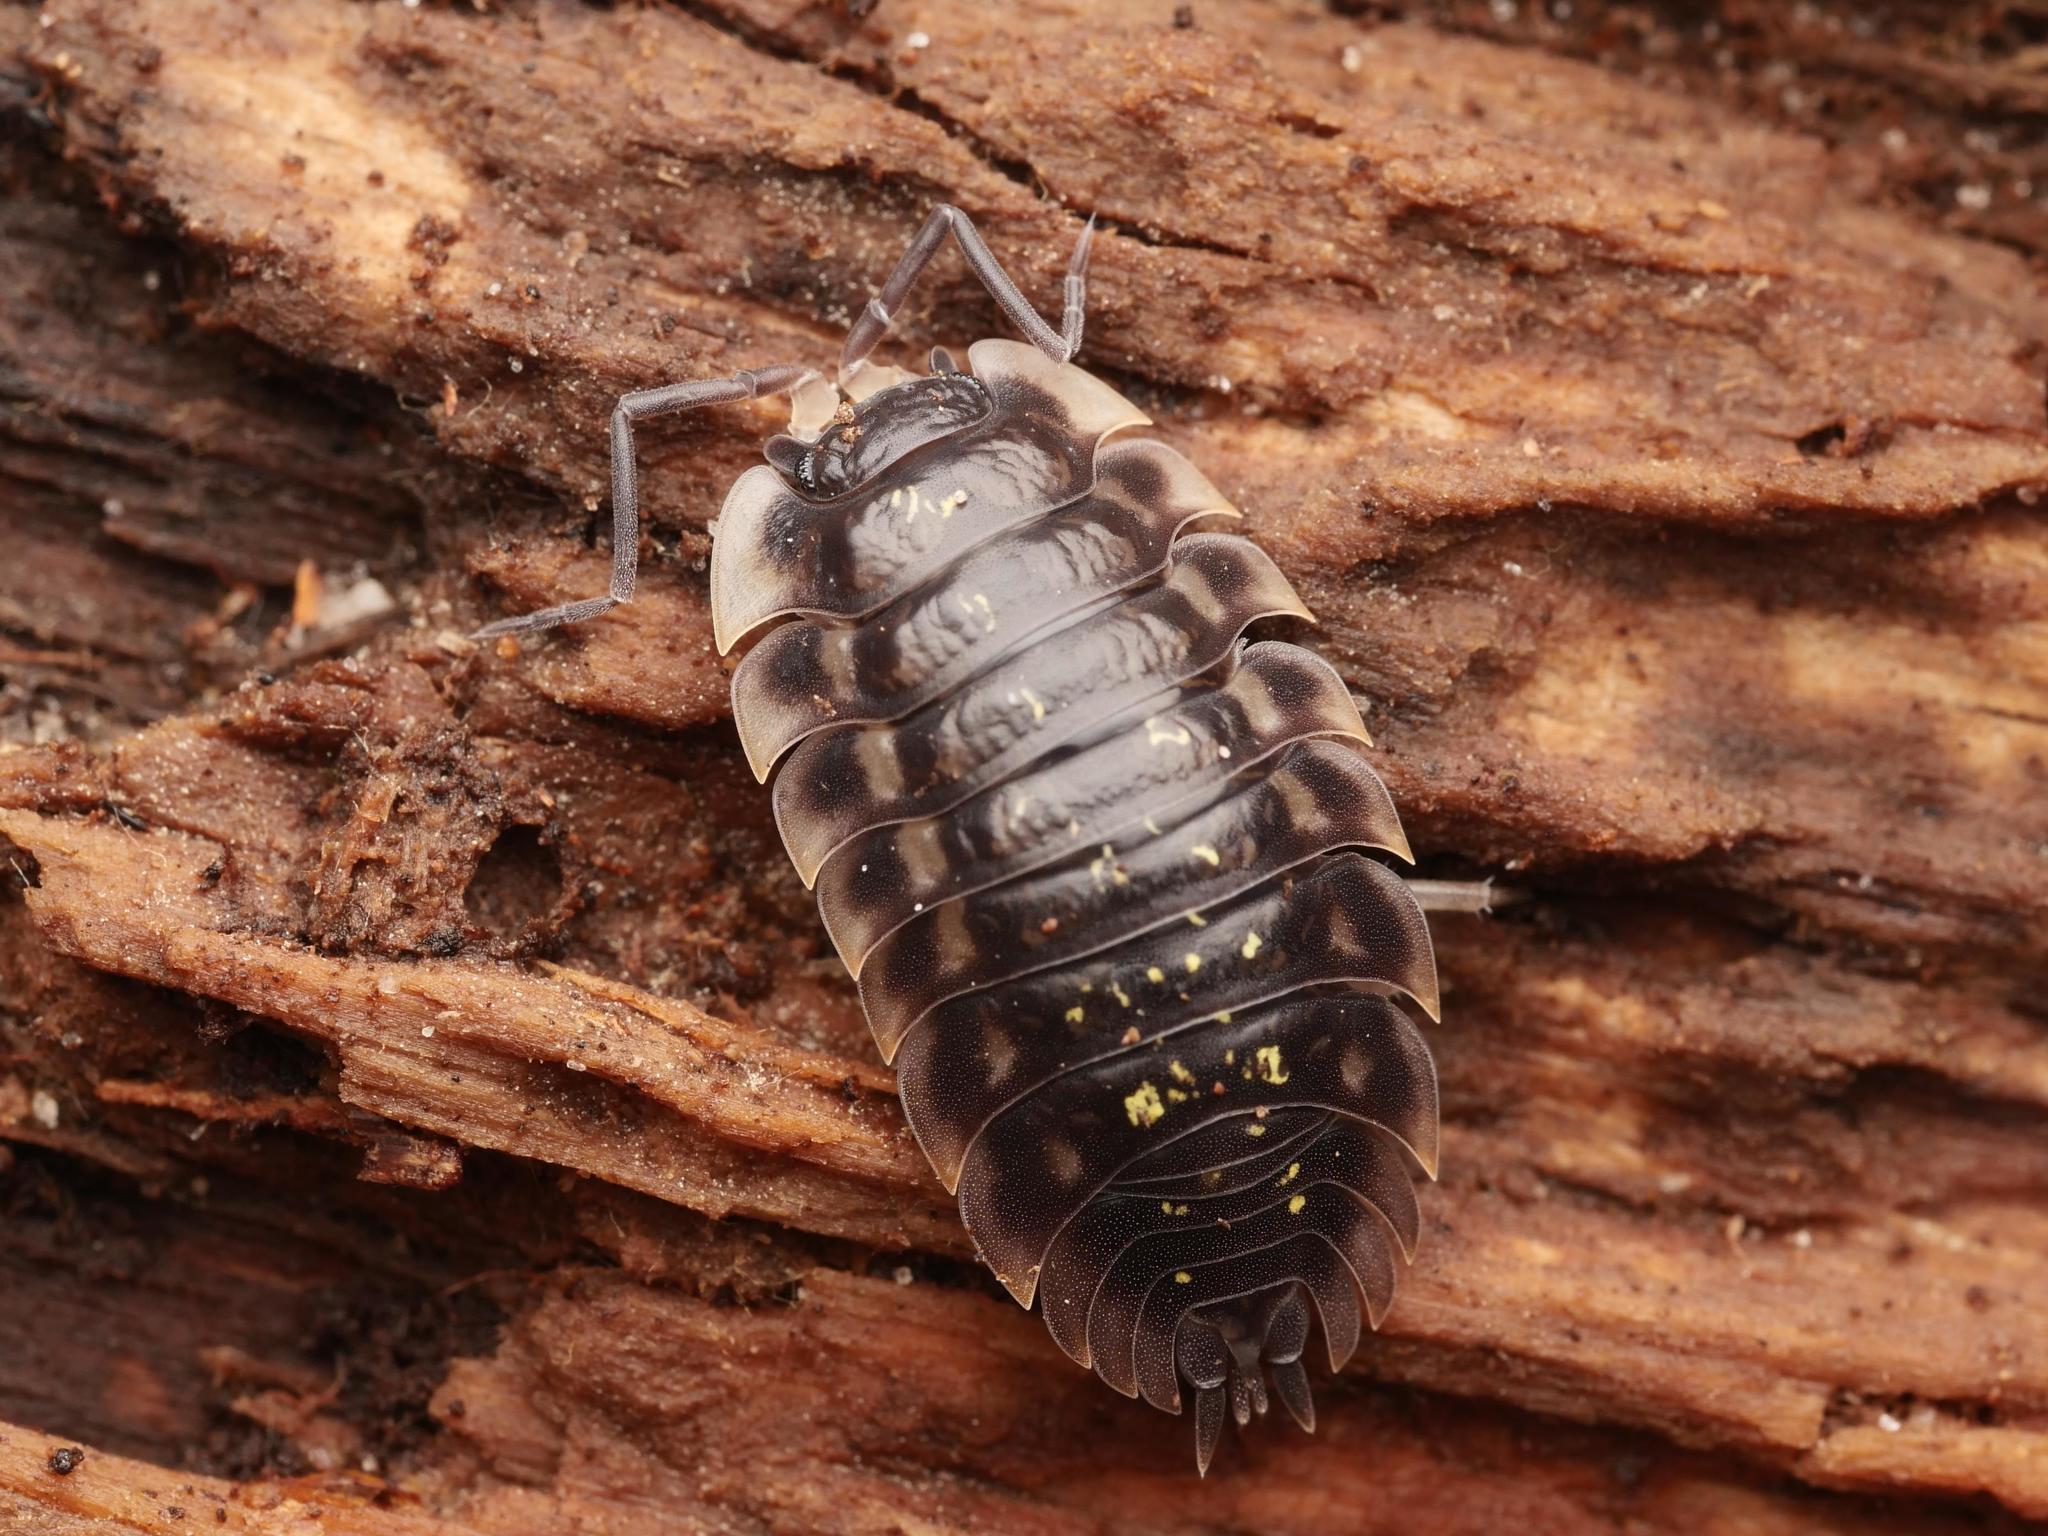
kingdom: Animalia
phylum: Arthropoda
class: Malacostraca
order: Isopoda
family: Oniscidae
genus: Oniscus
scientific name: Oniscus asellus
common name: Common shiny woodlouse
